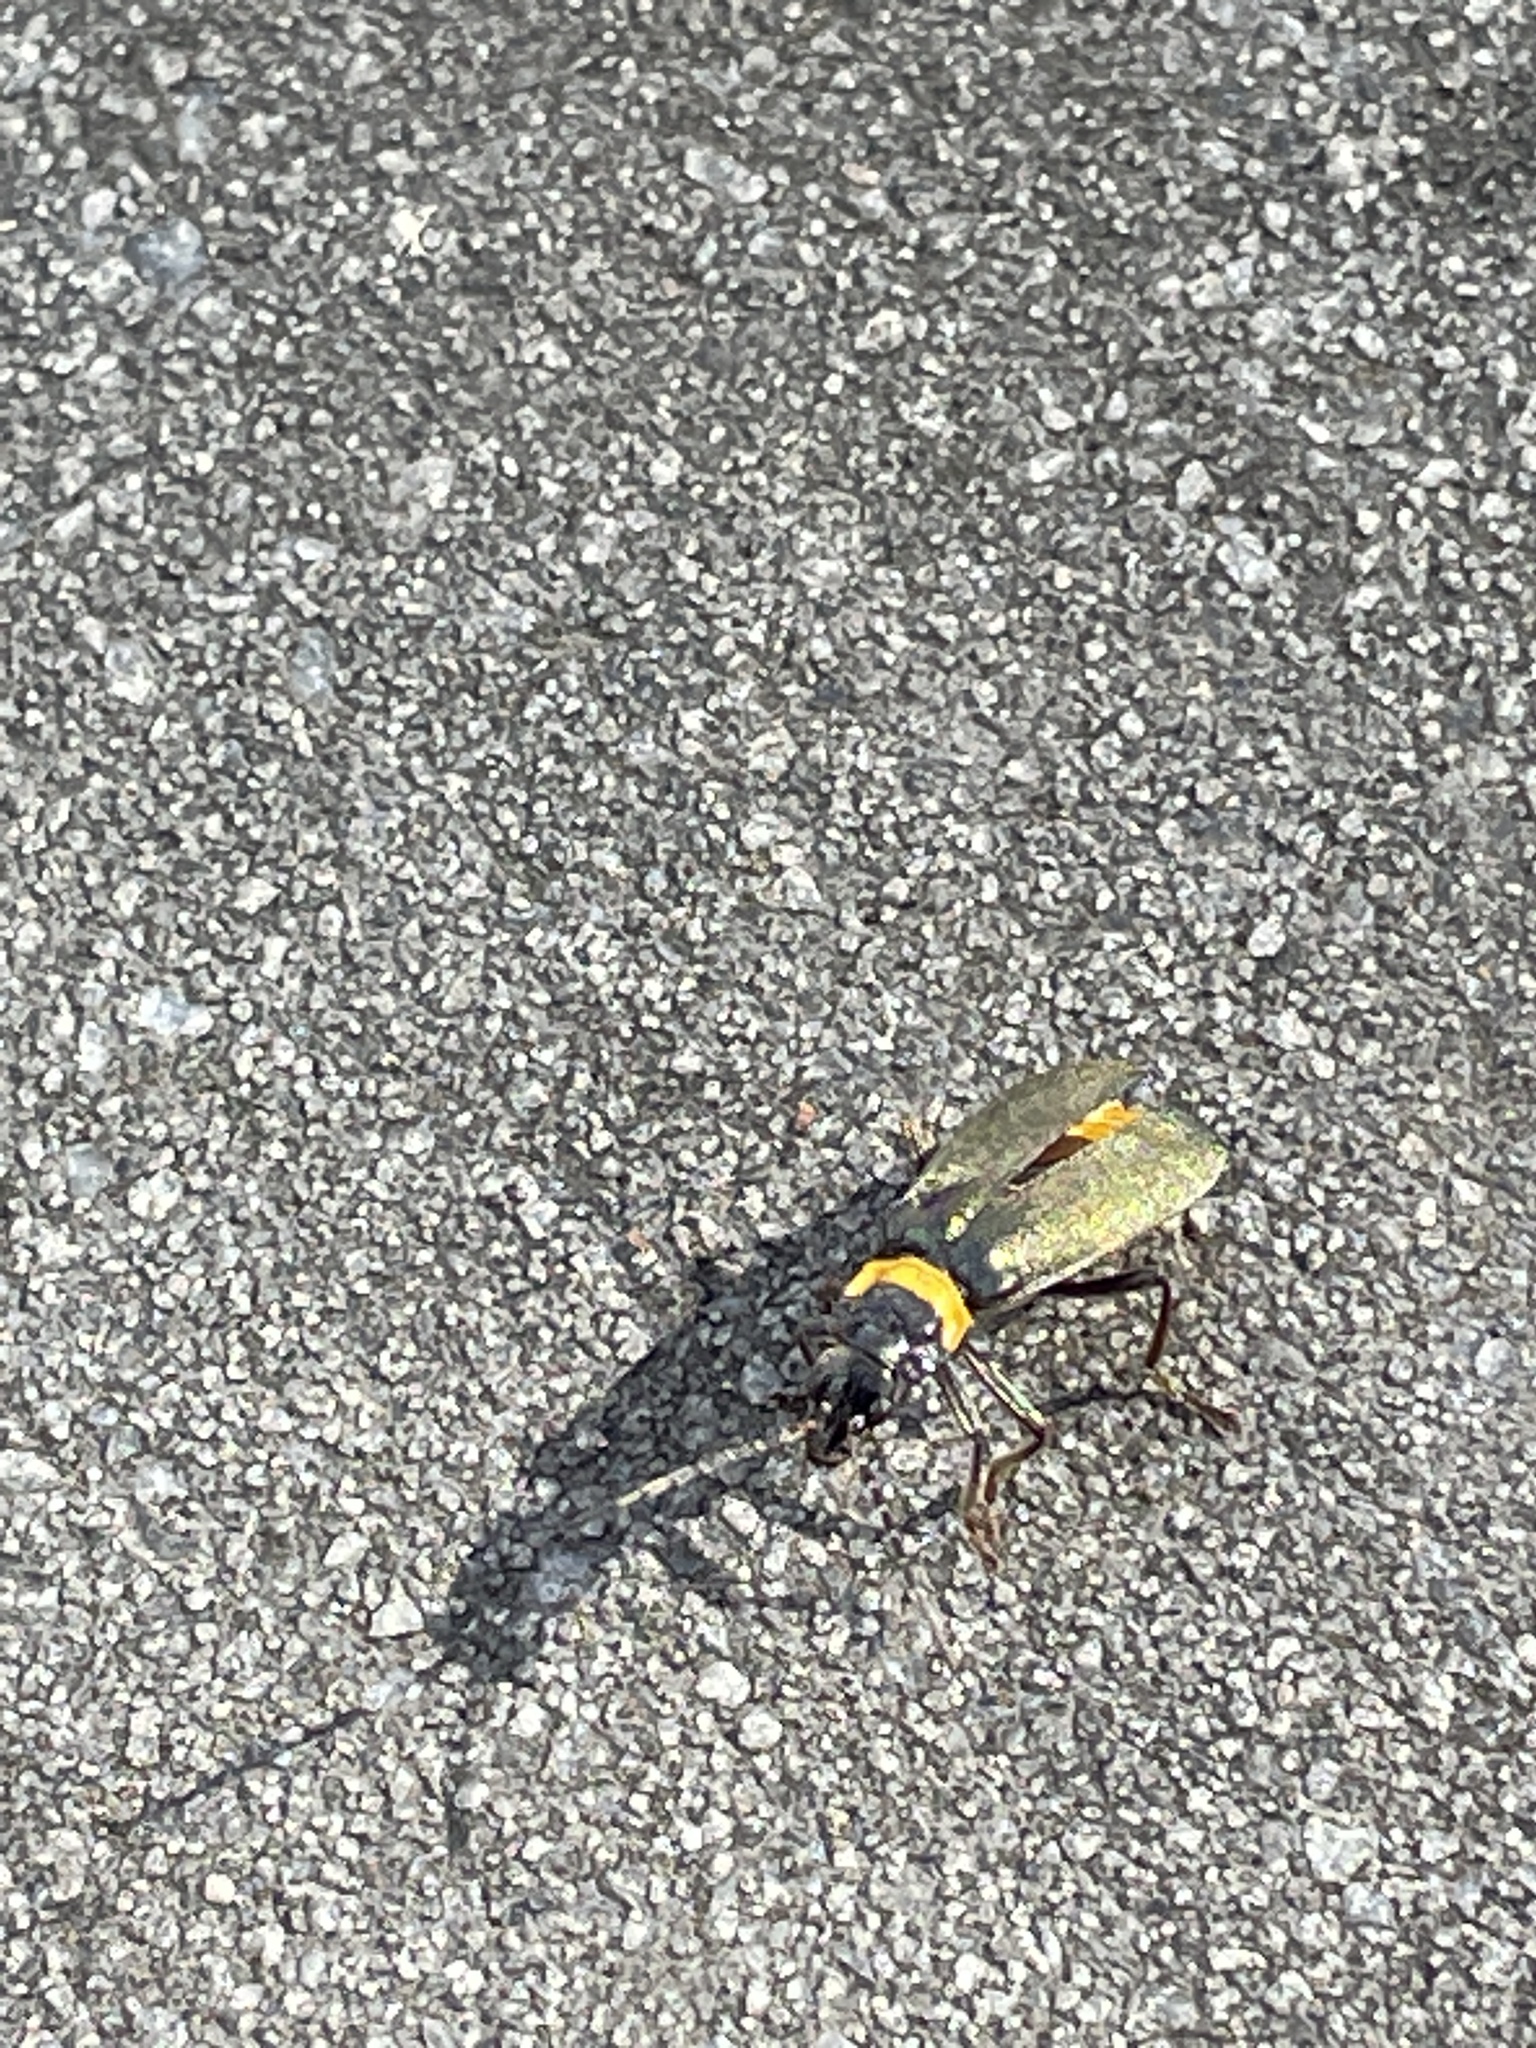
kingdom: Animalia
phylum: Arthropoda
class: Insecta
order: Coleoptera
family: Cantharidae
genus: Chauliognathus
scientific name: Chauliognathus
